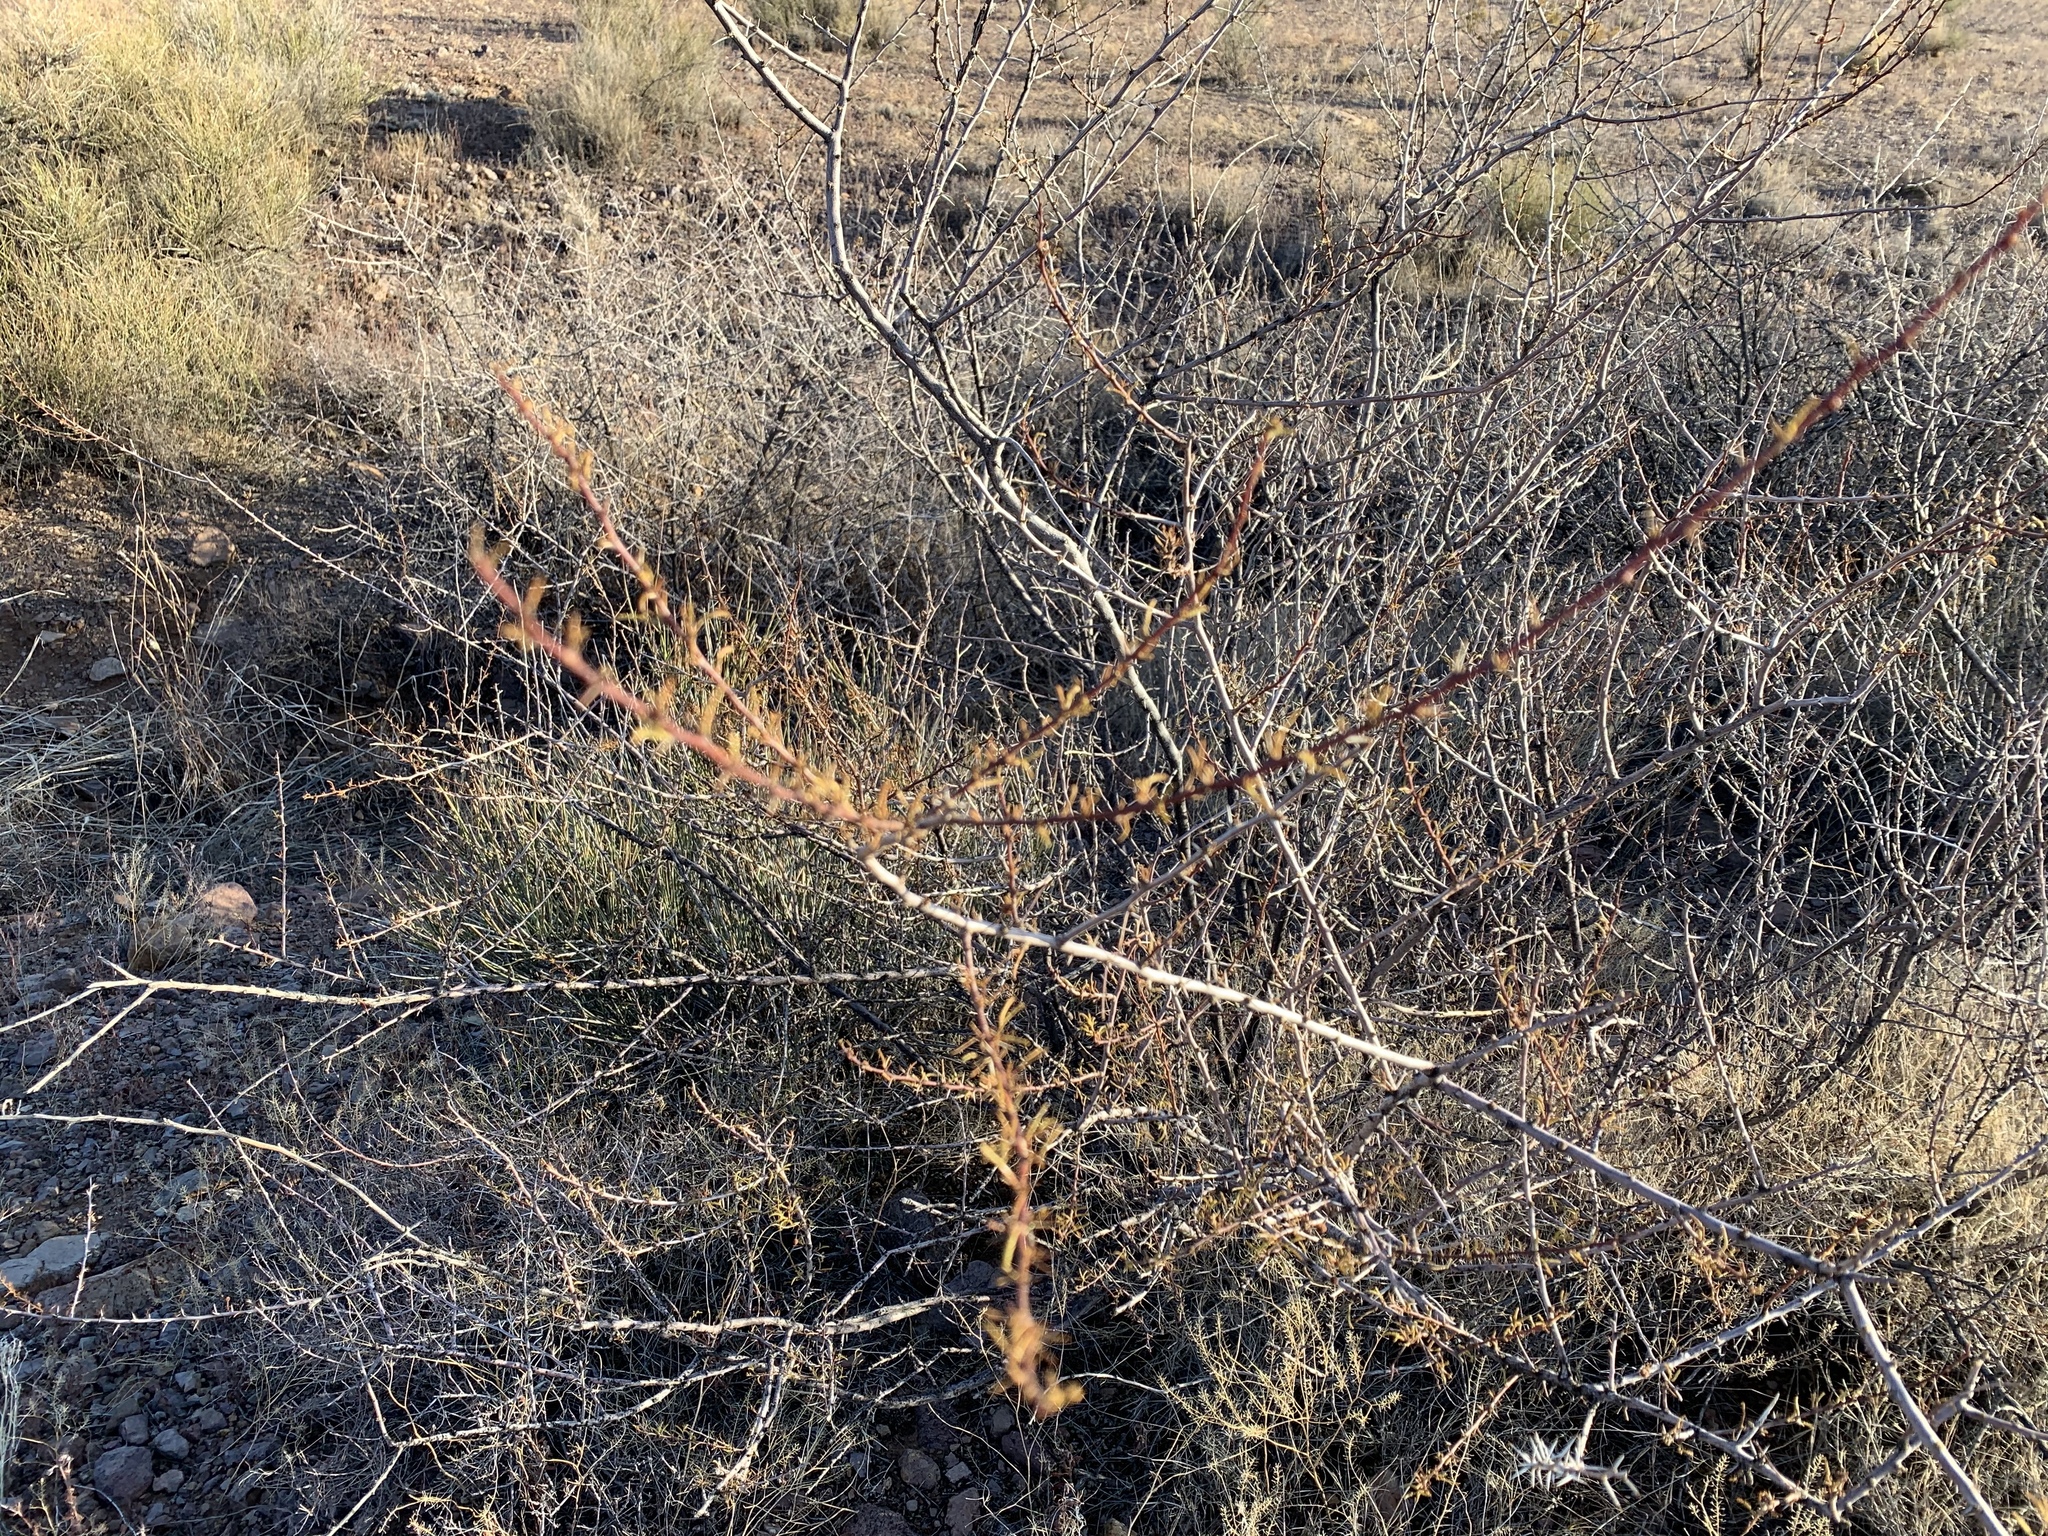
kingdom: Plantae
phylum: Tracheophyta
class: Magnoliopsida
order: Fabales
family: Fabaceae
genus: Vachellia
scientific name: Vachellia constricta
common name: Mescat acacia
